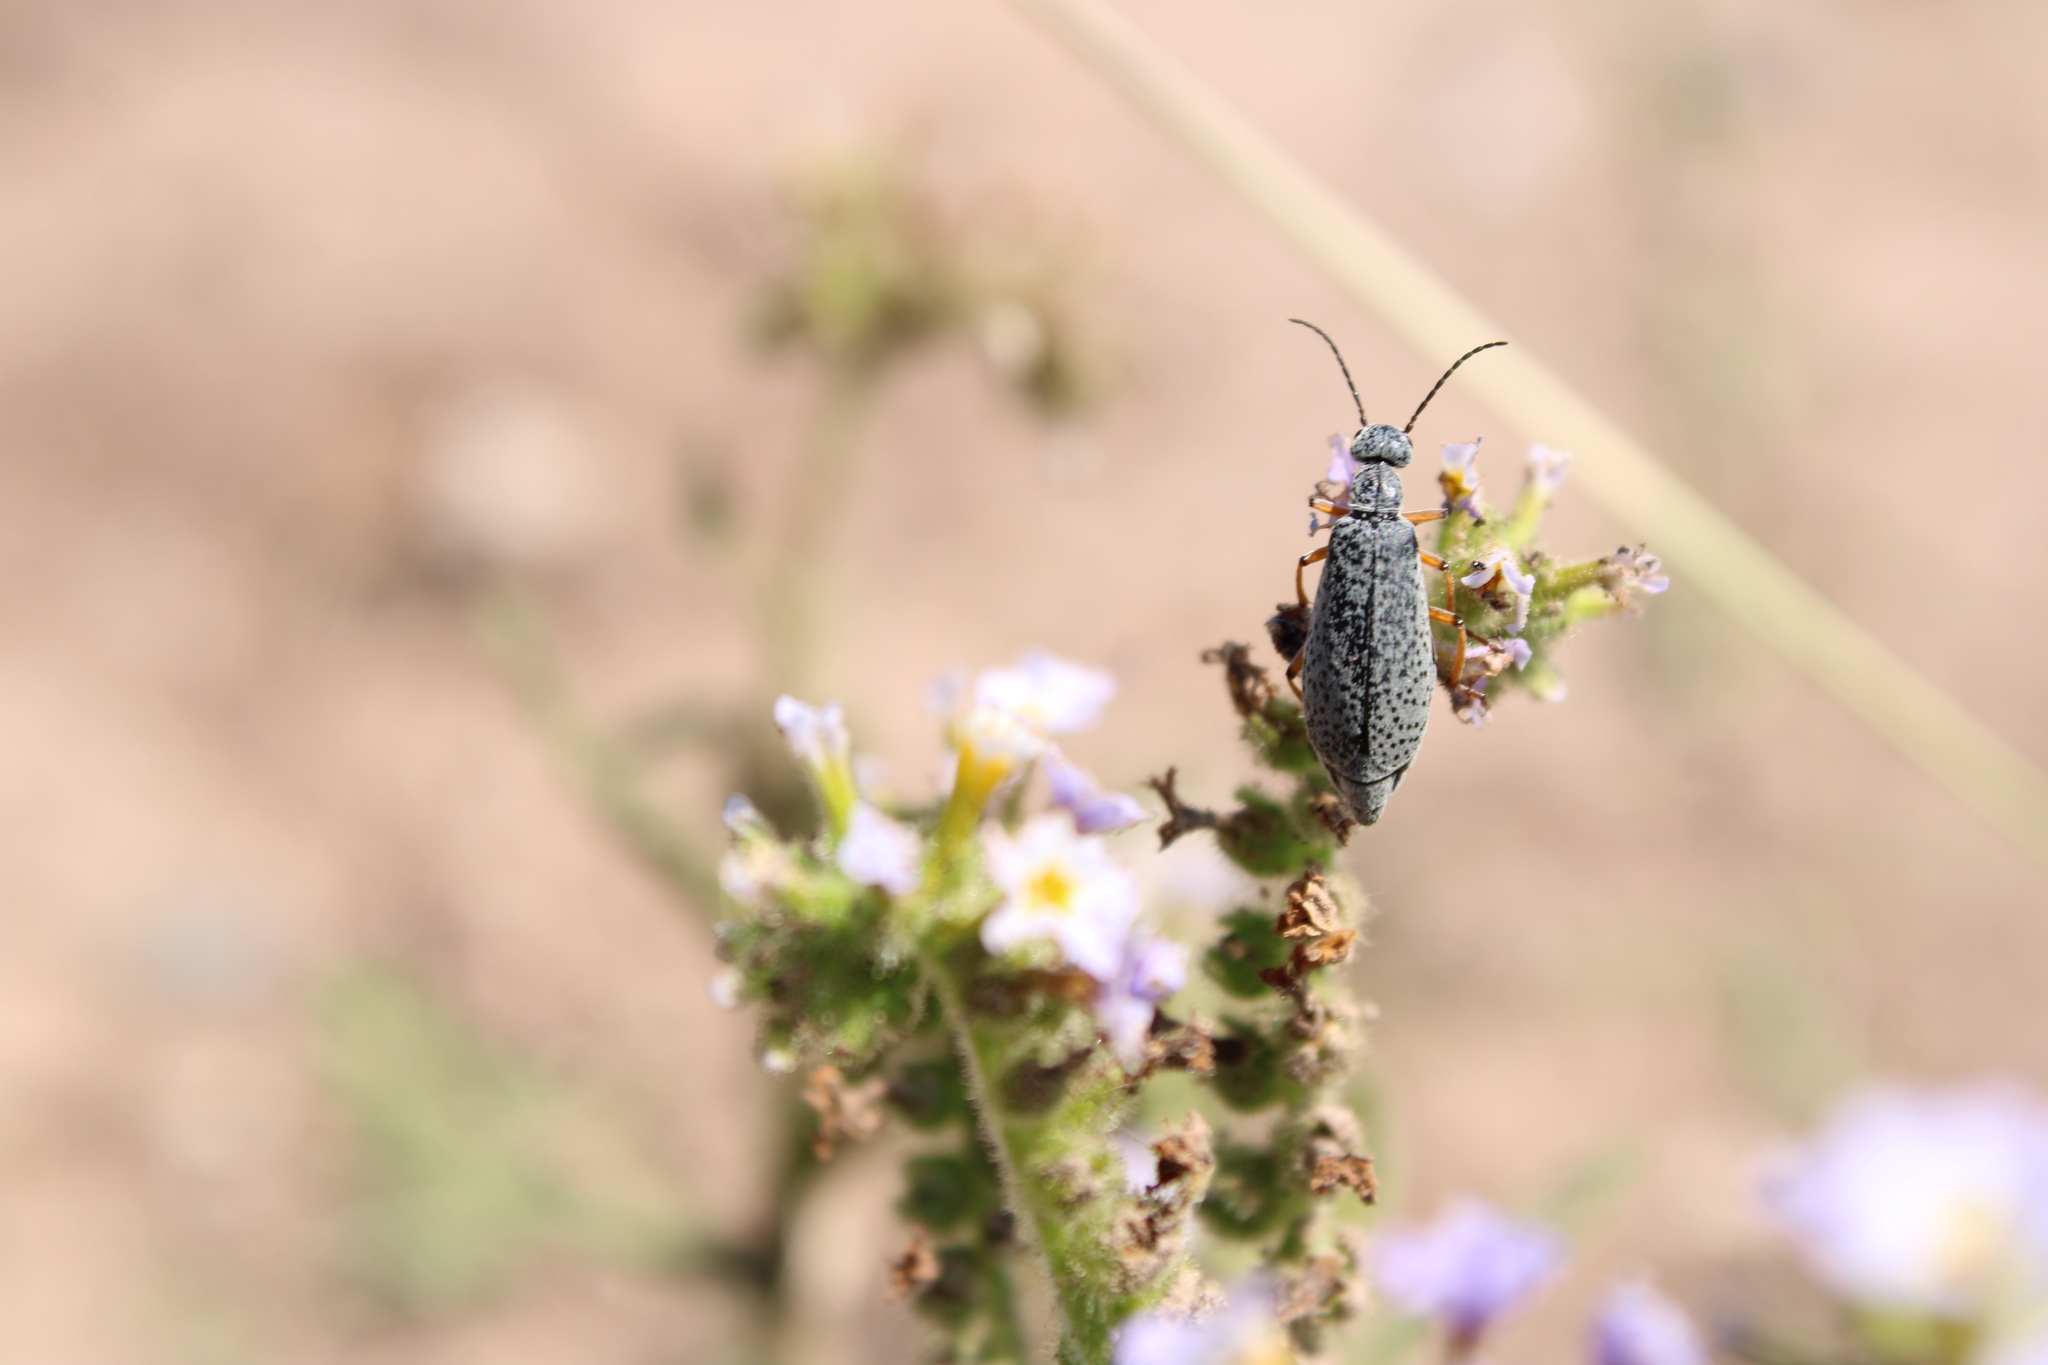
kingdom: Animalia
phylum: Arthropoda
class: Insecta
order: Coleoptera
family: Meloidae
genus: Epicauta
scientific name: Epicauta
